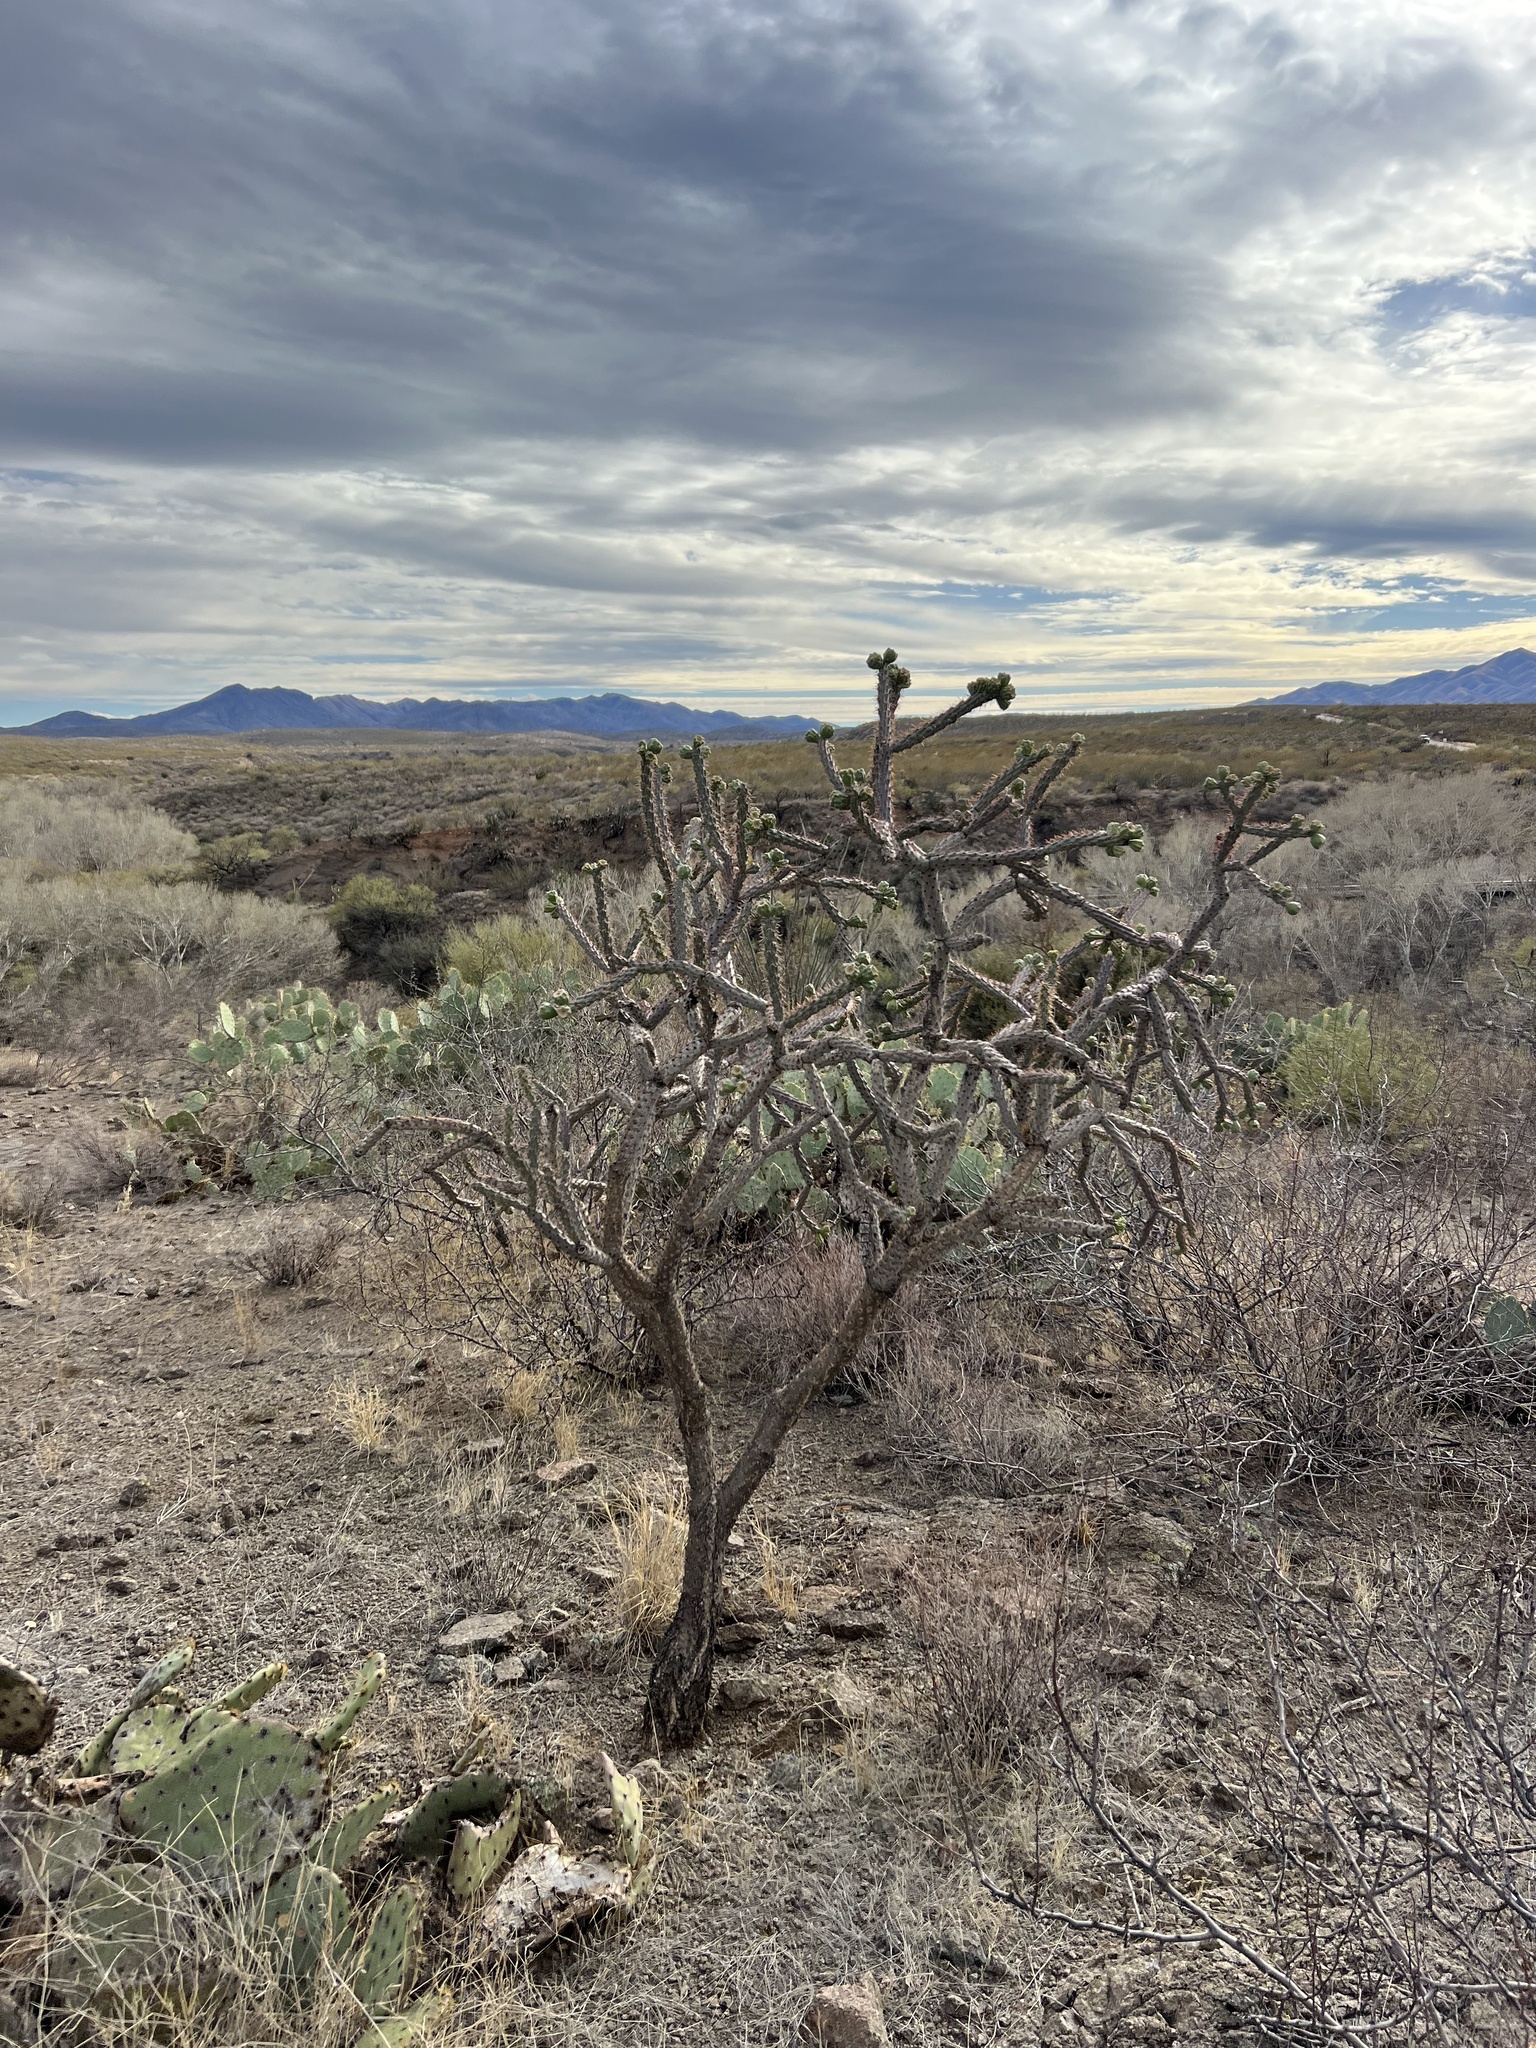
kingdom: Plantae
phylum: Tracheophyta
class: Magnoliopsida
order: Caryophyllales
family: Cactaceae
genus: Cylindropuntia
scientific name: Cylindropuntia thurberi
